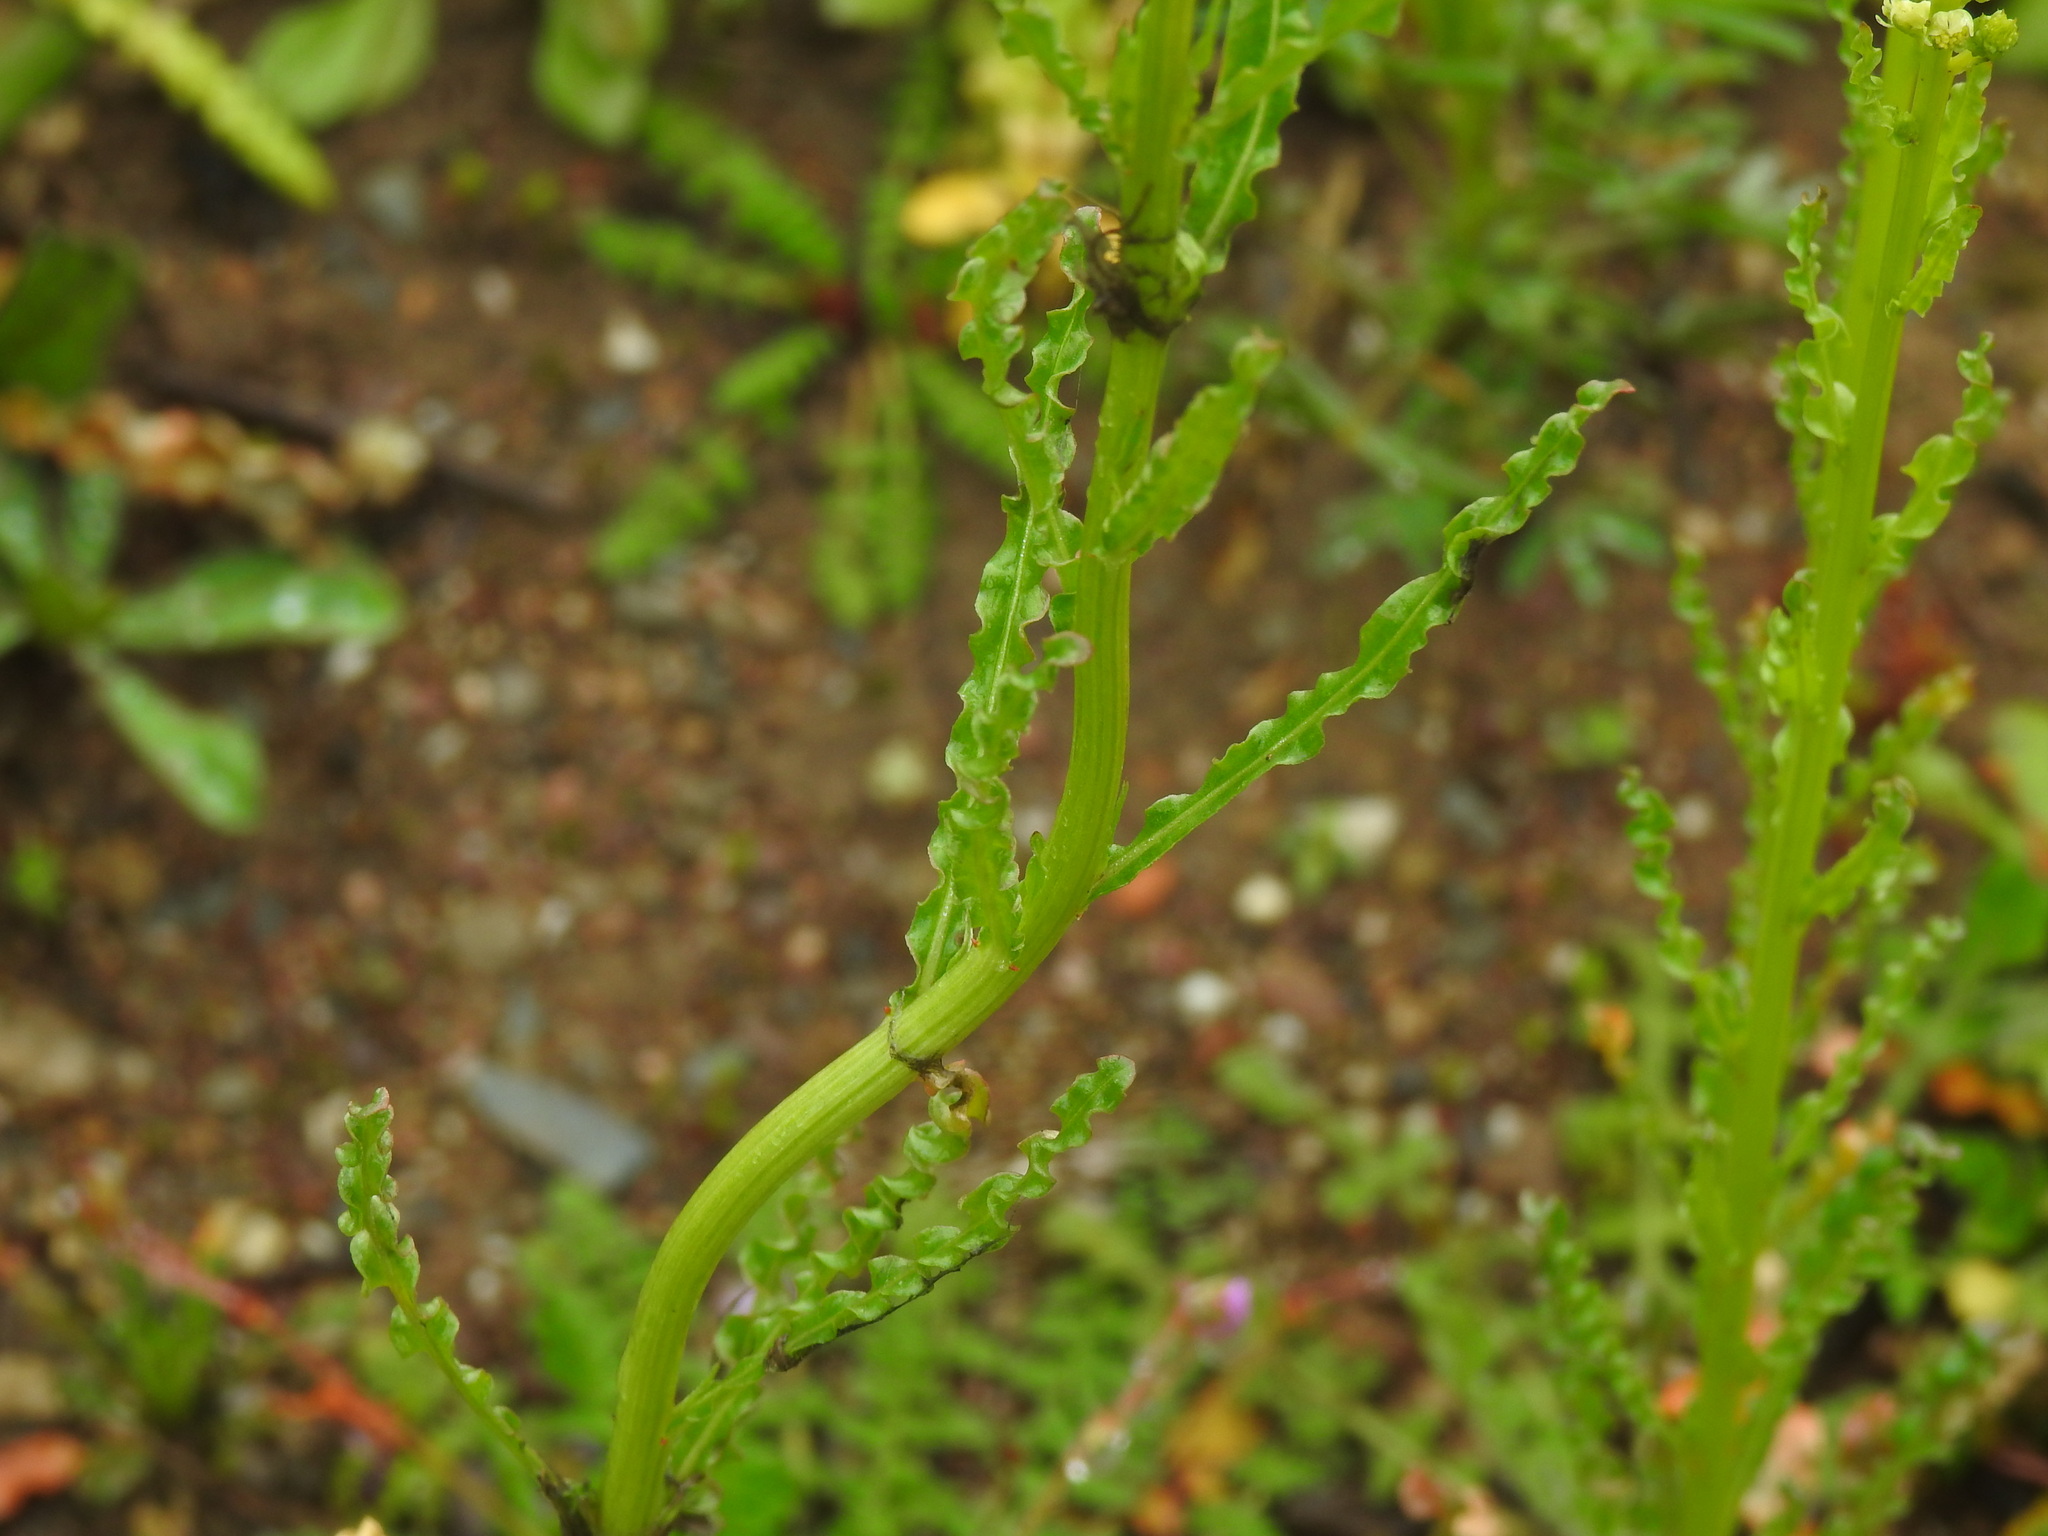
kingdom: Plantae
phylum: Tracheophyta
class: Magnoliopsida
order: Brassicales
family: Resedaceae
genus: Reseda
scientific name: Reseda luteola
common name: Weld
